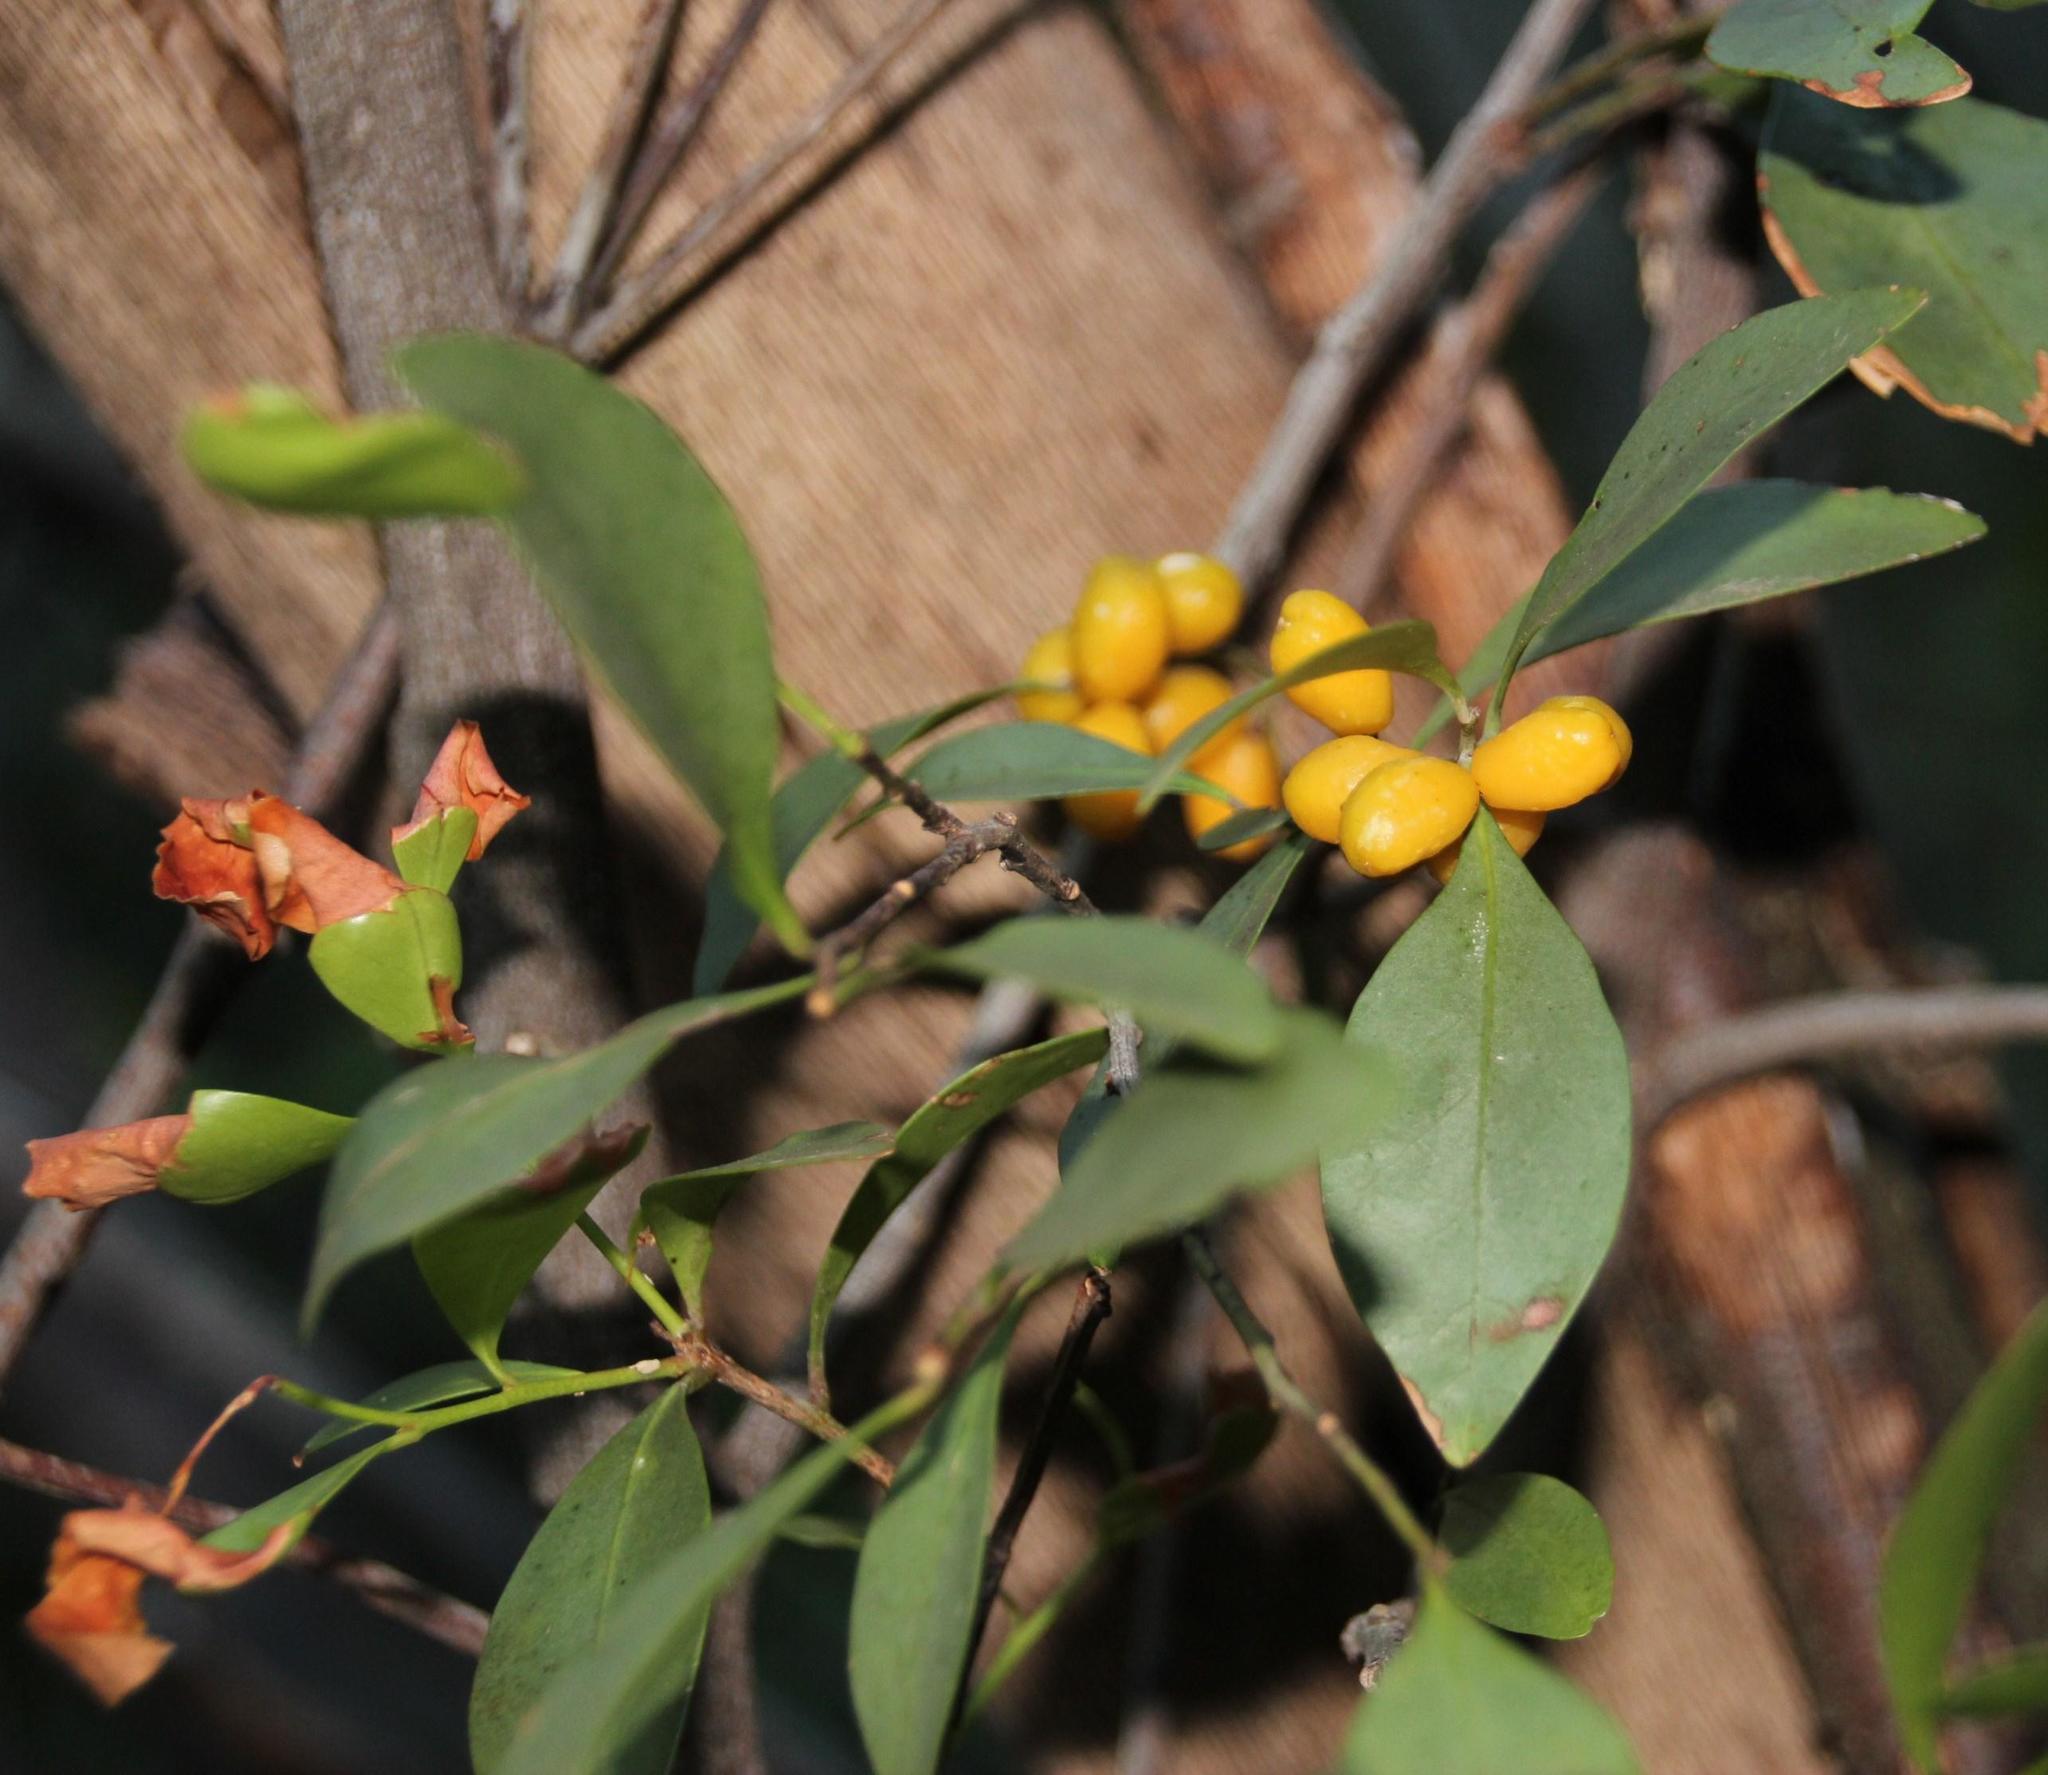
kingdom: Plantae
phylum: Tracheophyta
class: Magnoliopsida
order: Celastrales
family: Celastraceae
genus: Gymnosporia
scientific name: Gymnosporia laurina
